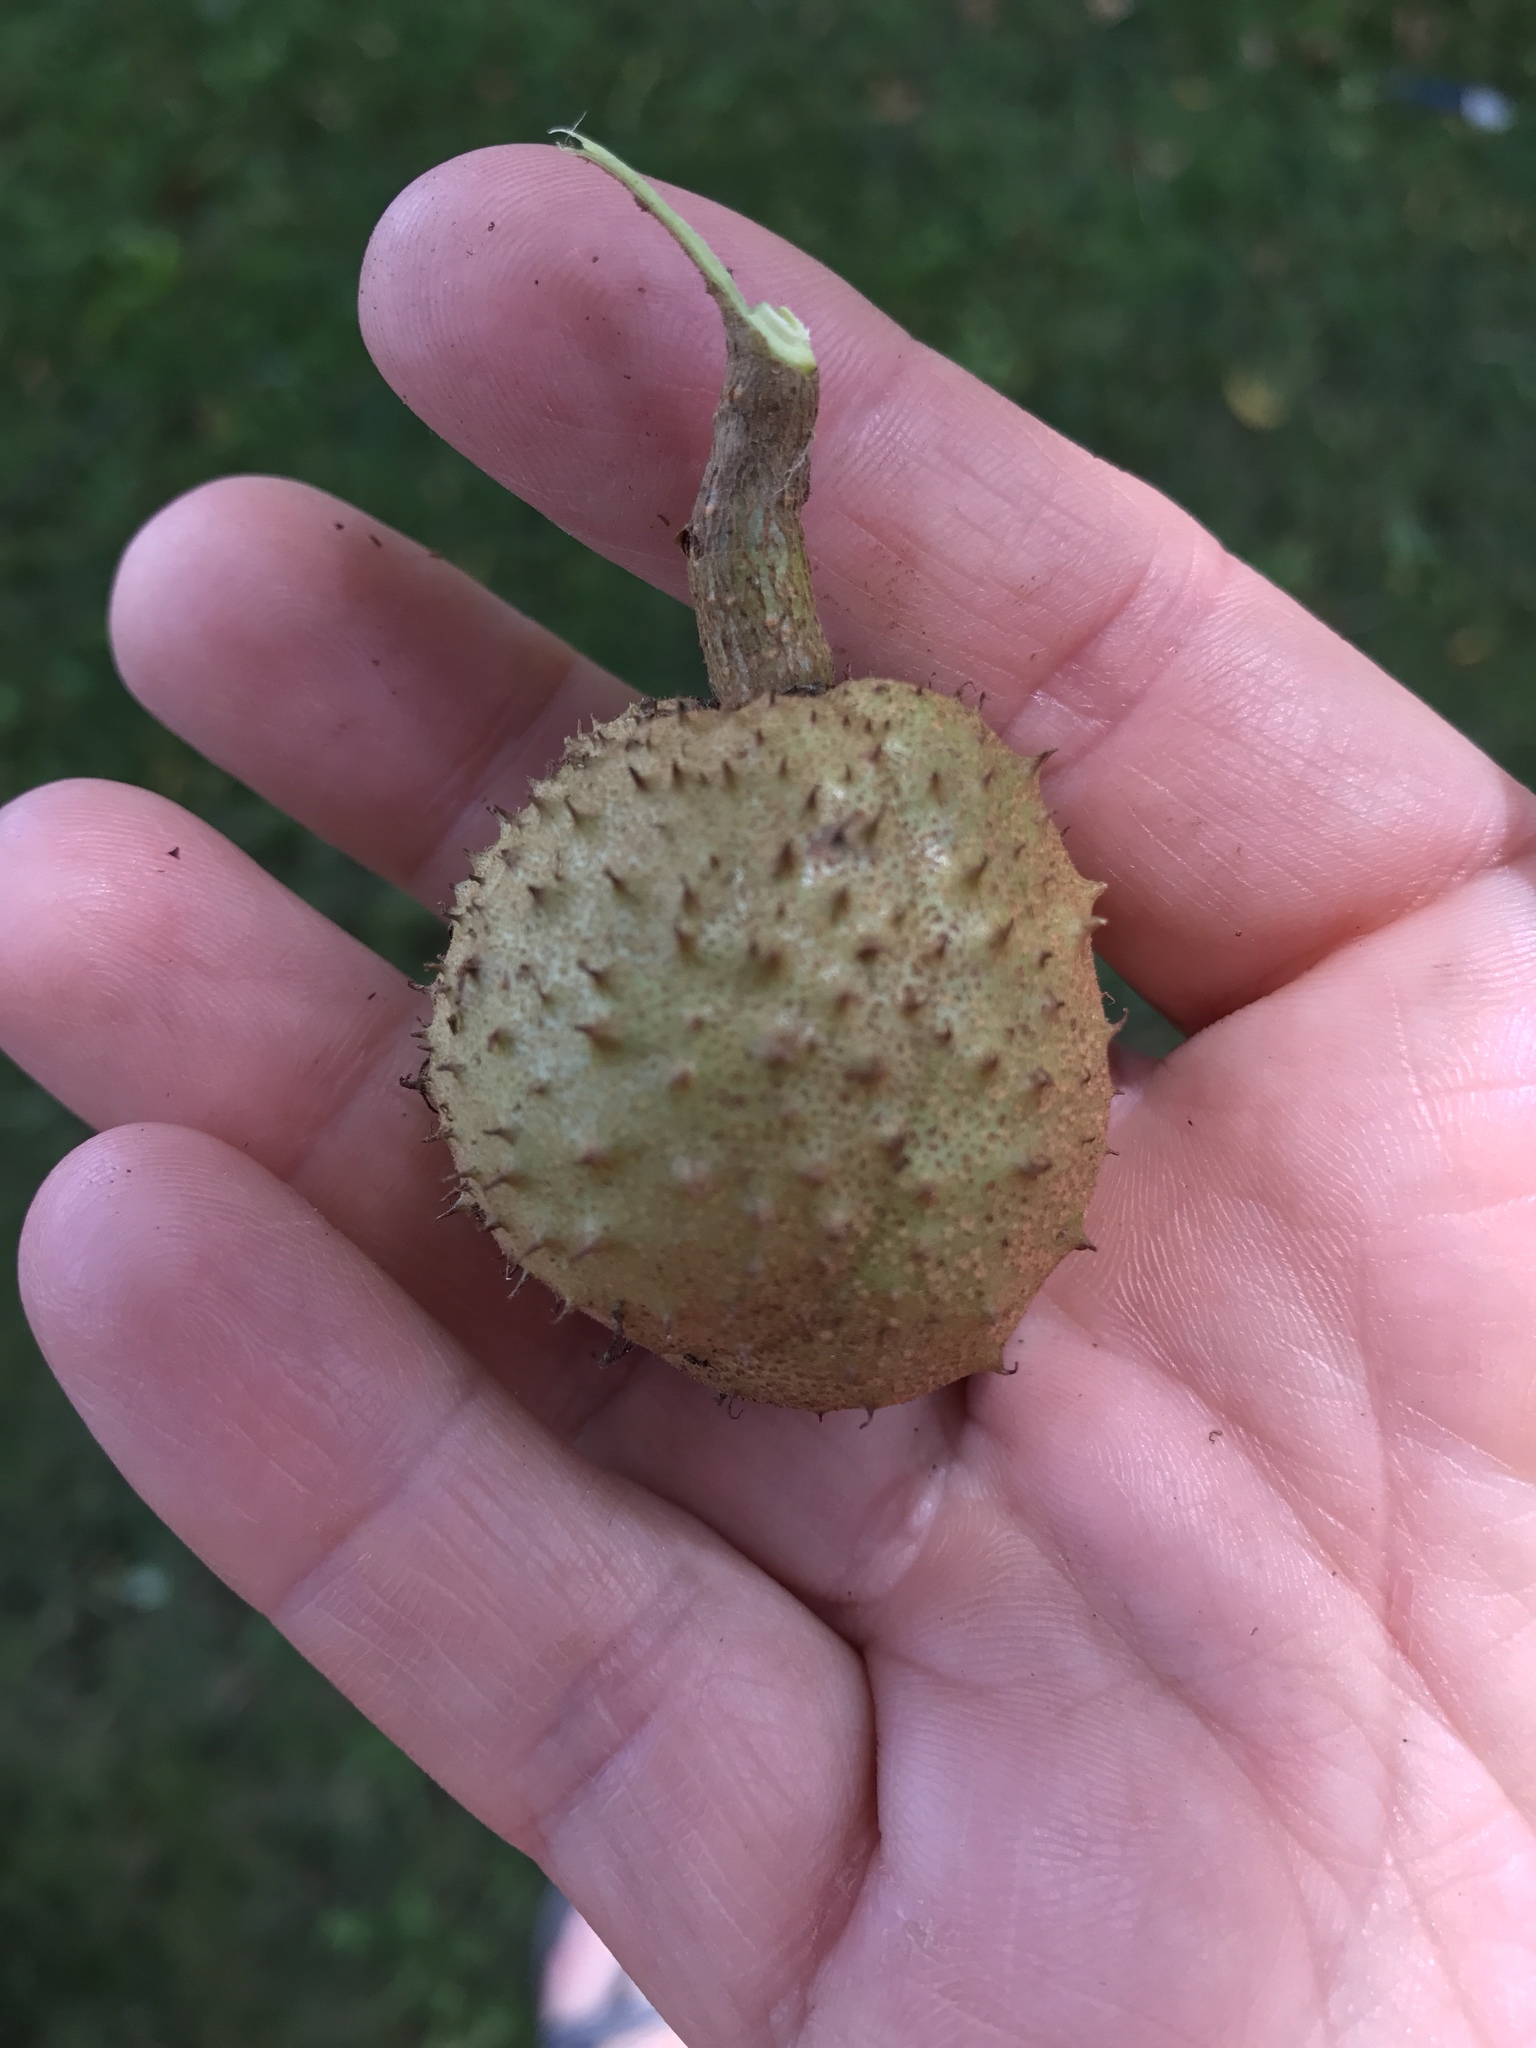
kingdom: Plantae
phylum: Tracheophyta
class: Magnoliopsida
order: Sapindales
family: Sapindaceae
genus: Aesculus
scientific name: Aesculus glabra
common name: Ohio buckeye
